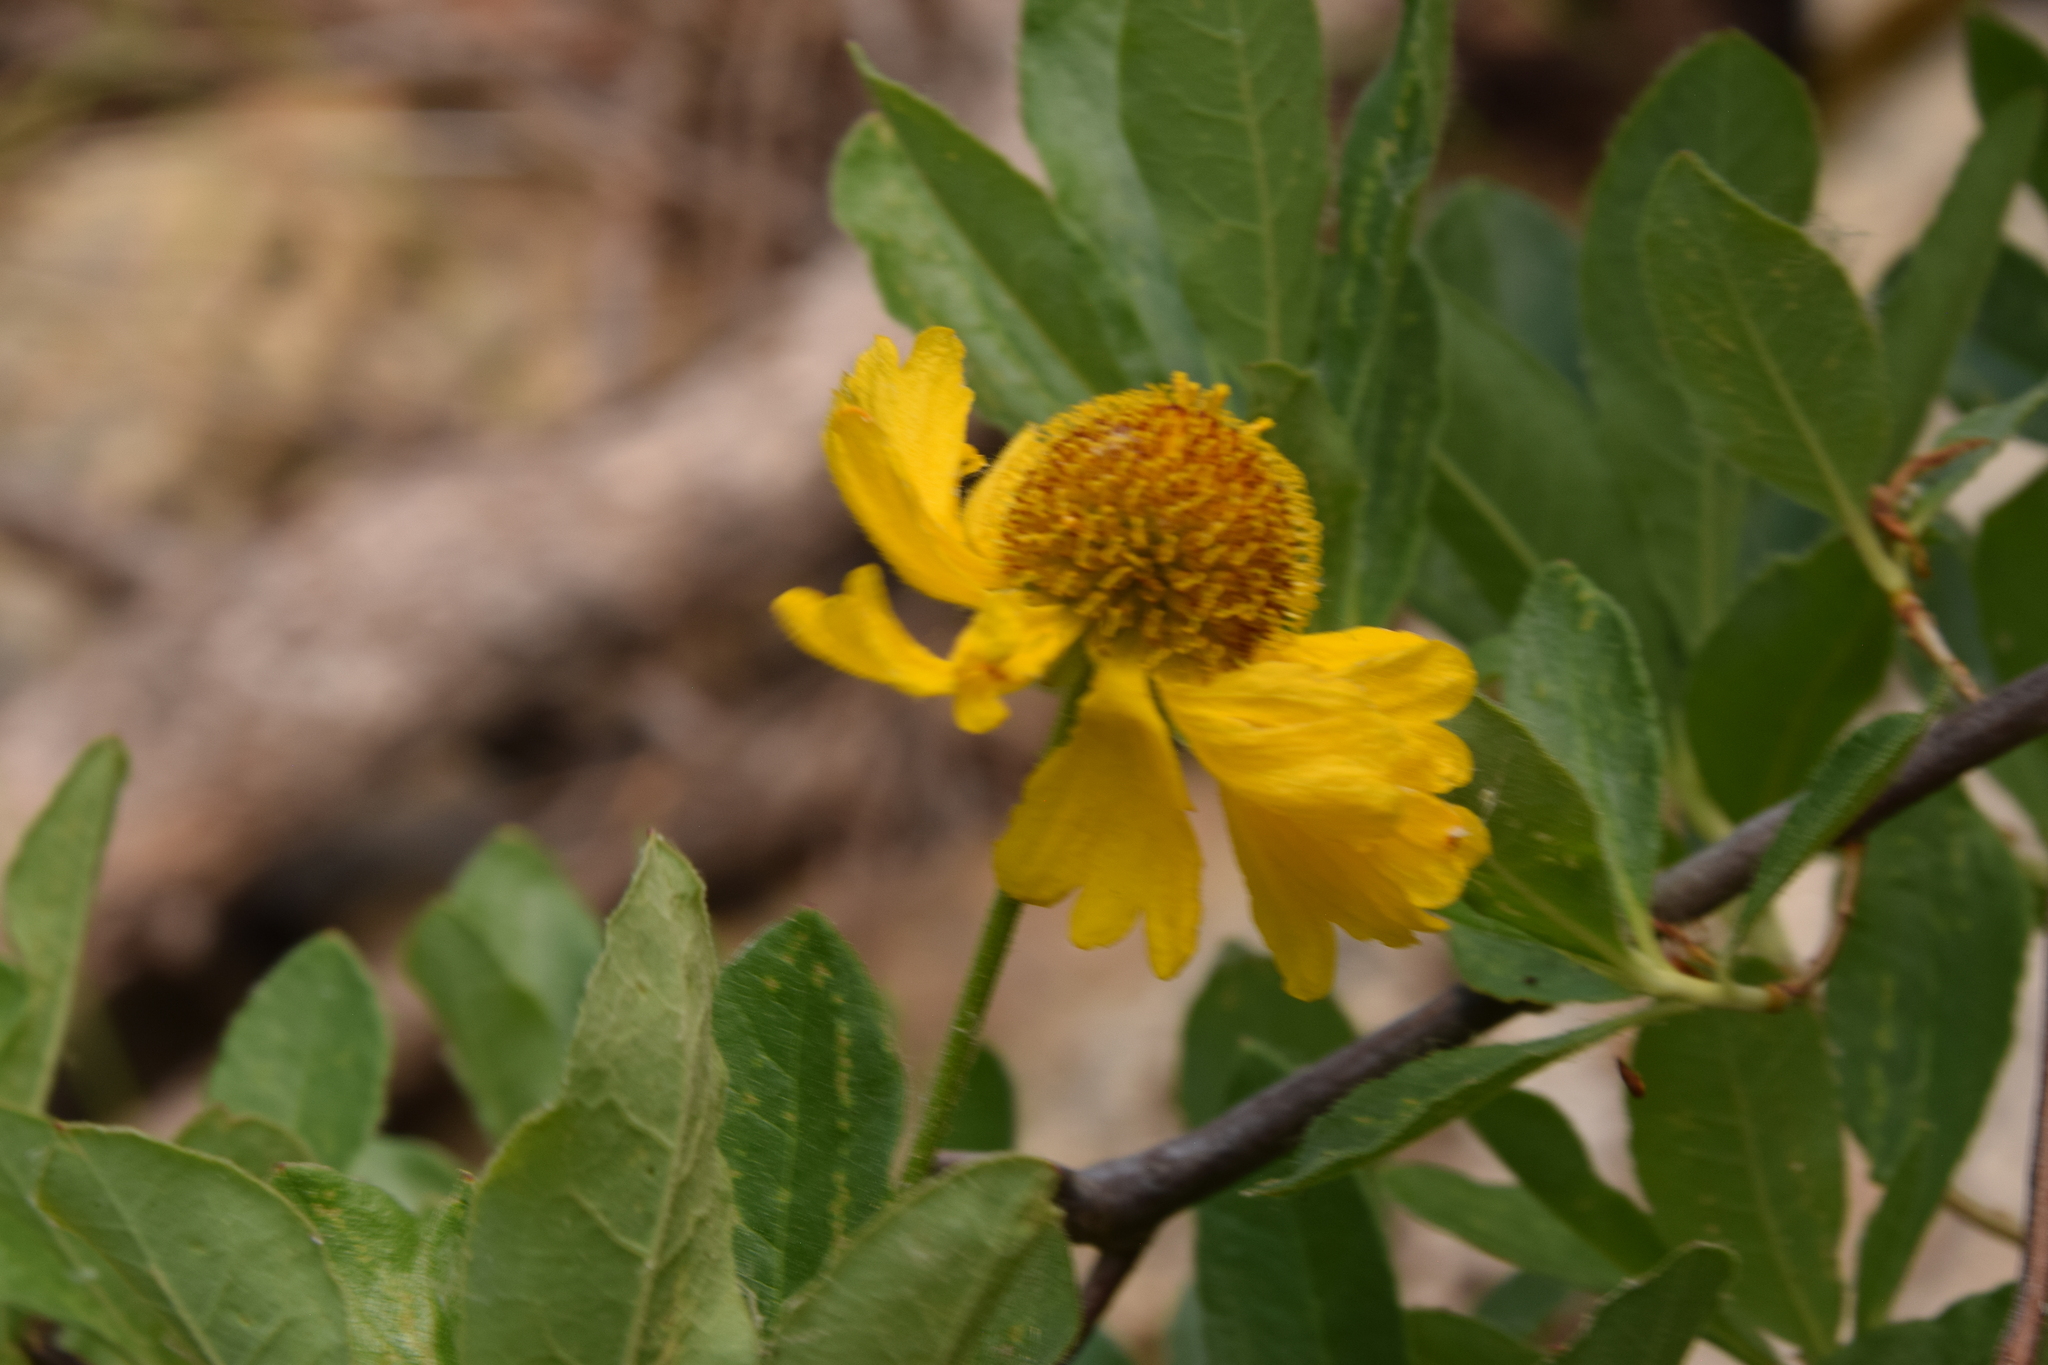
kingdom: Plantae
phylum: Tracheophyta
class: Magnoliopsida
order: Asterales
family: Asteraceae
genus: Helenium
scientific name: Helenium bigelovii
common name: Bigelow's sneezeweed
